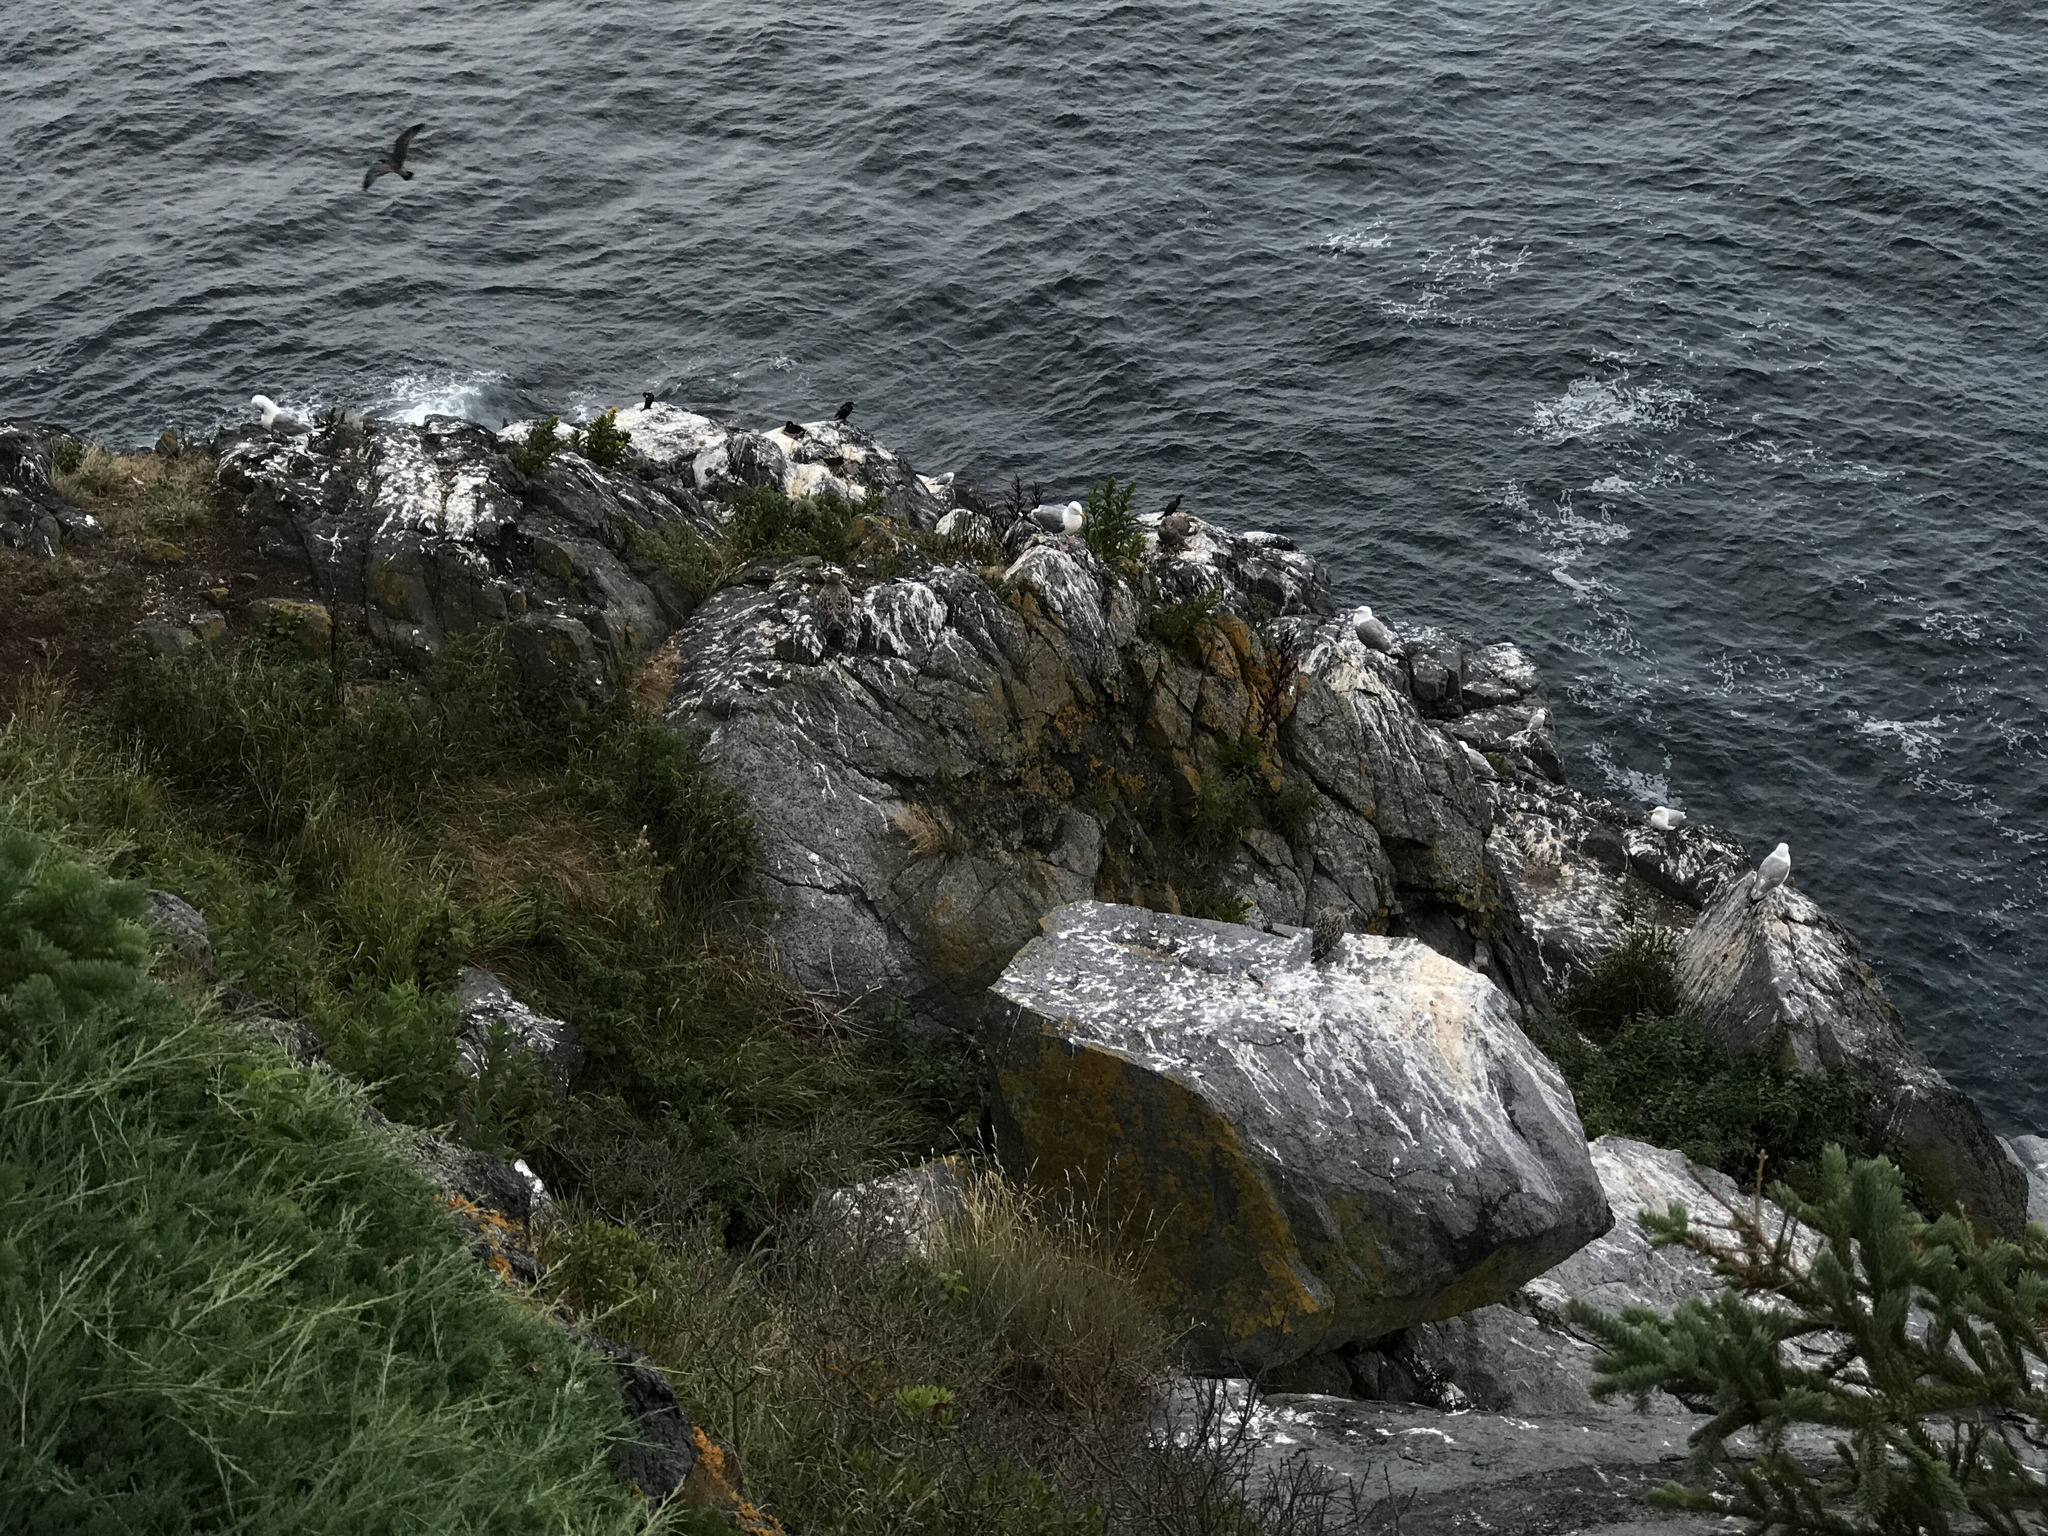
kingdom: Animalia
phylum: Chordata
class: Aves
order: Charadriiformes
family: Laridae
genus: Larus
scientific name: Larus argentatus
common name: Herring gull
